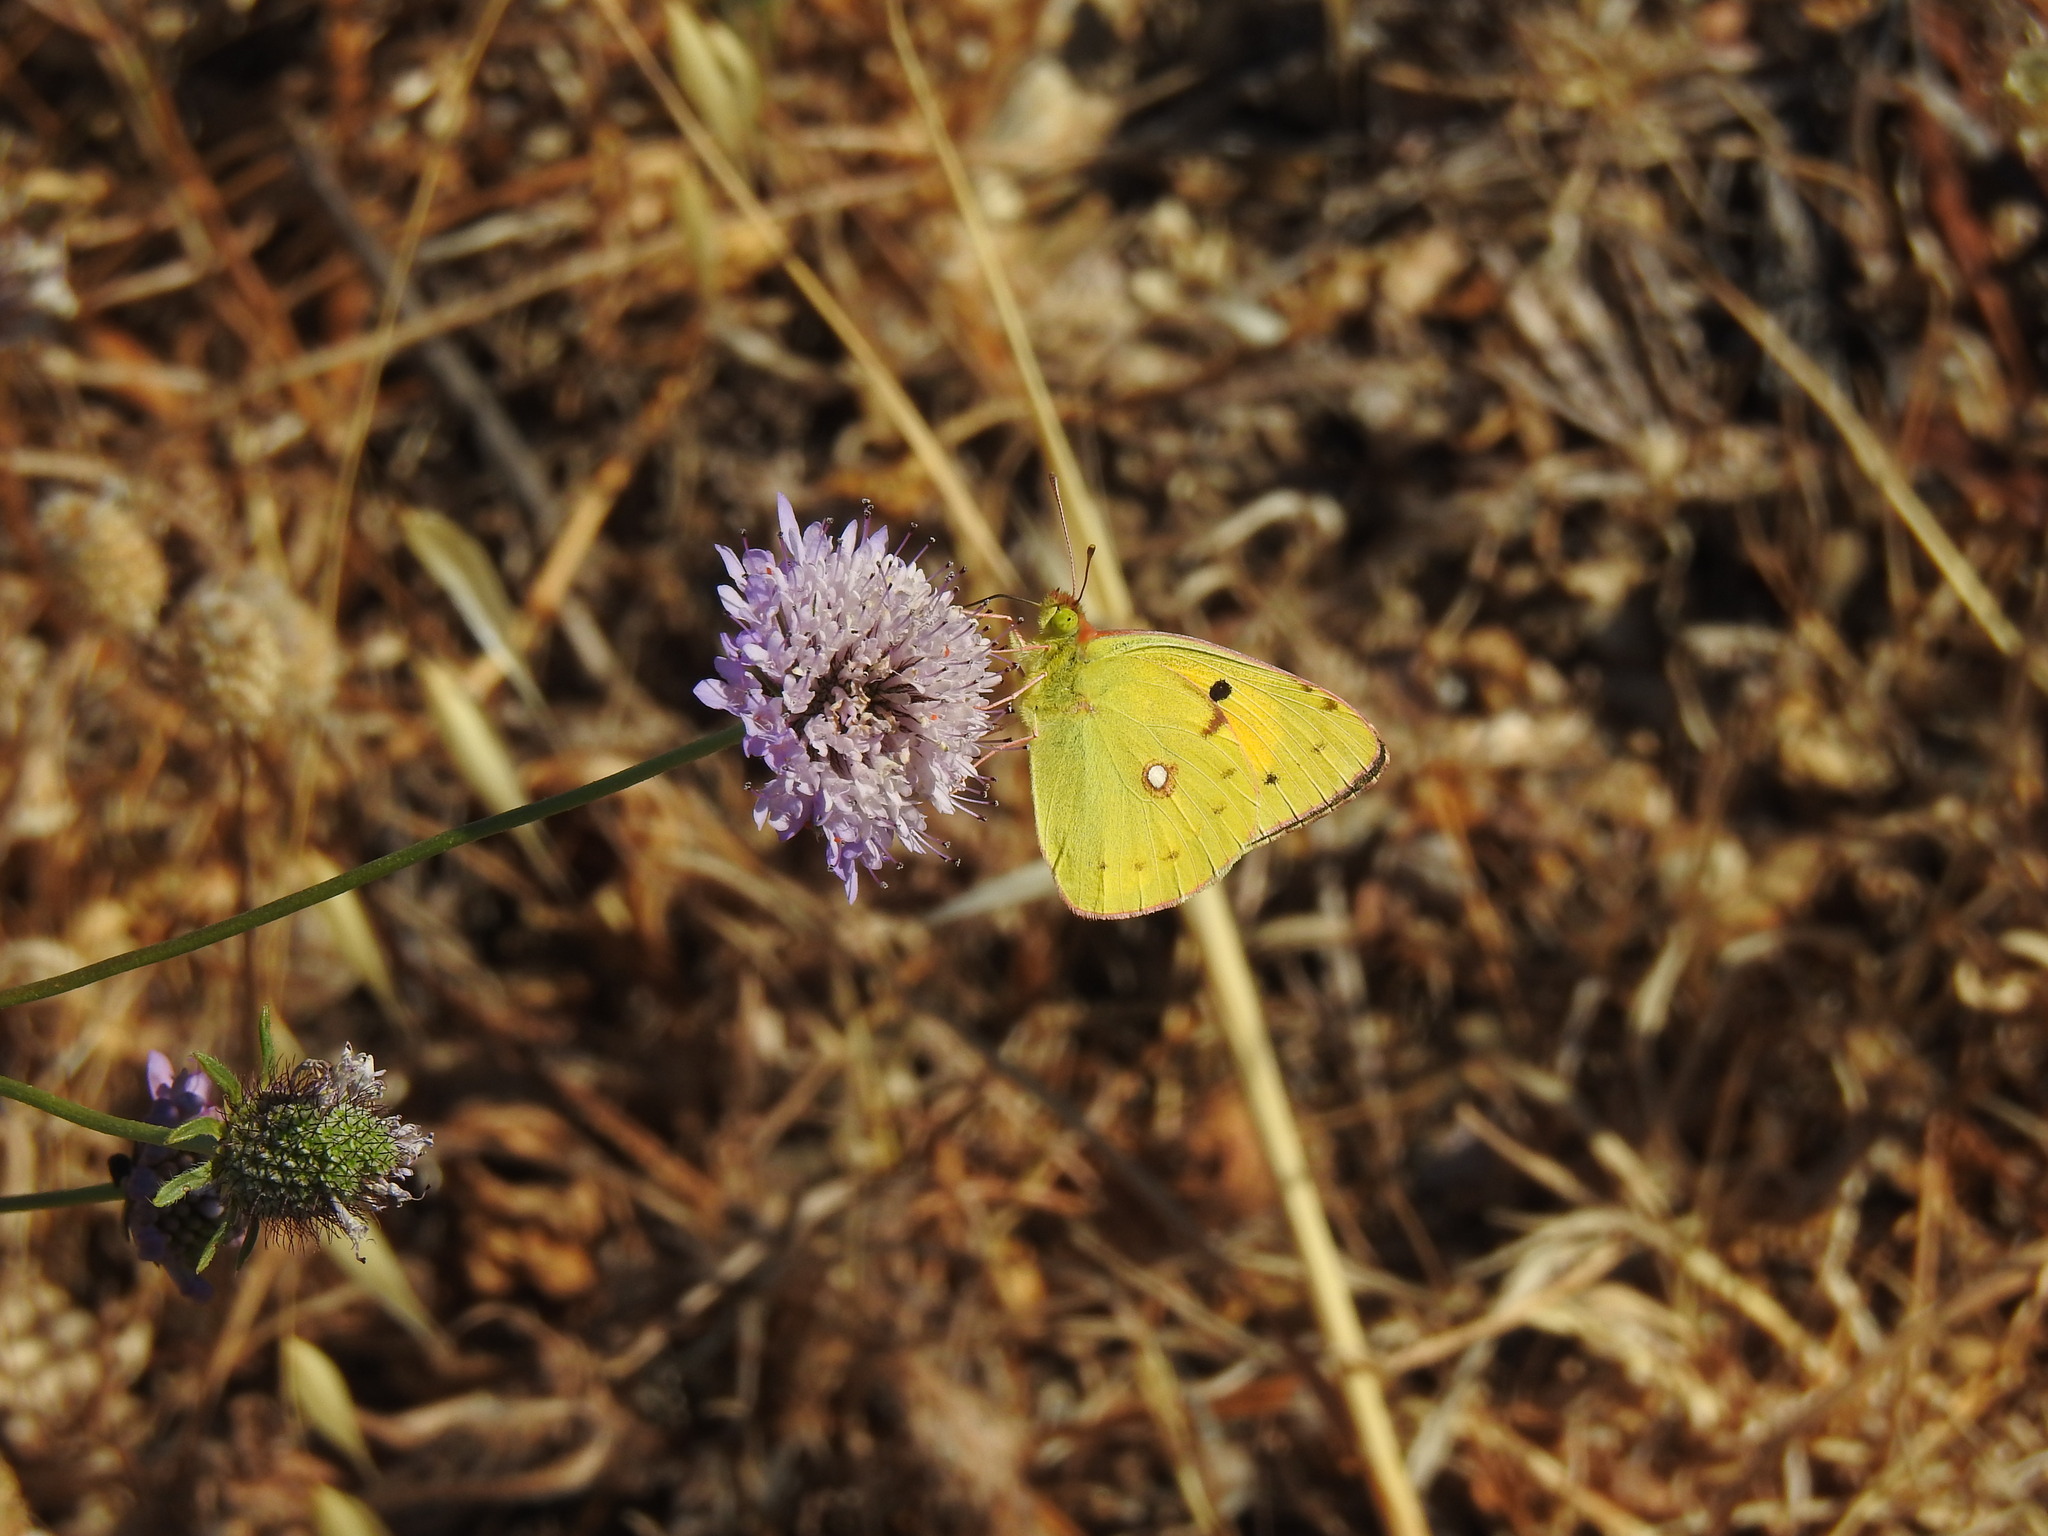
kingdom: Animalia
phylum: Arthropoda
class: Insecta
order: Lepidoptera
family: Pieridae
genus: Colias
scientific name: Colias croceus
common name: Clouded yellow
